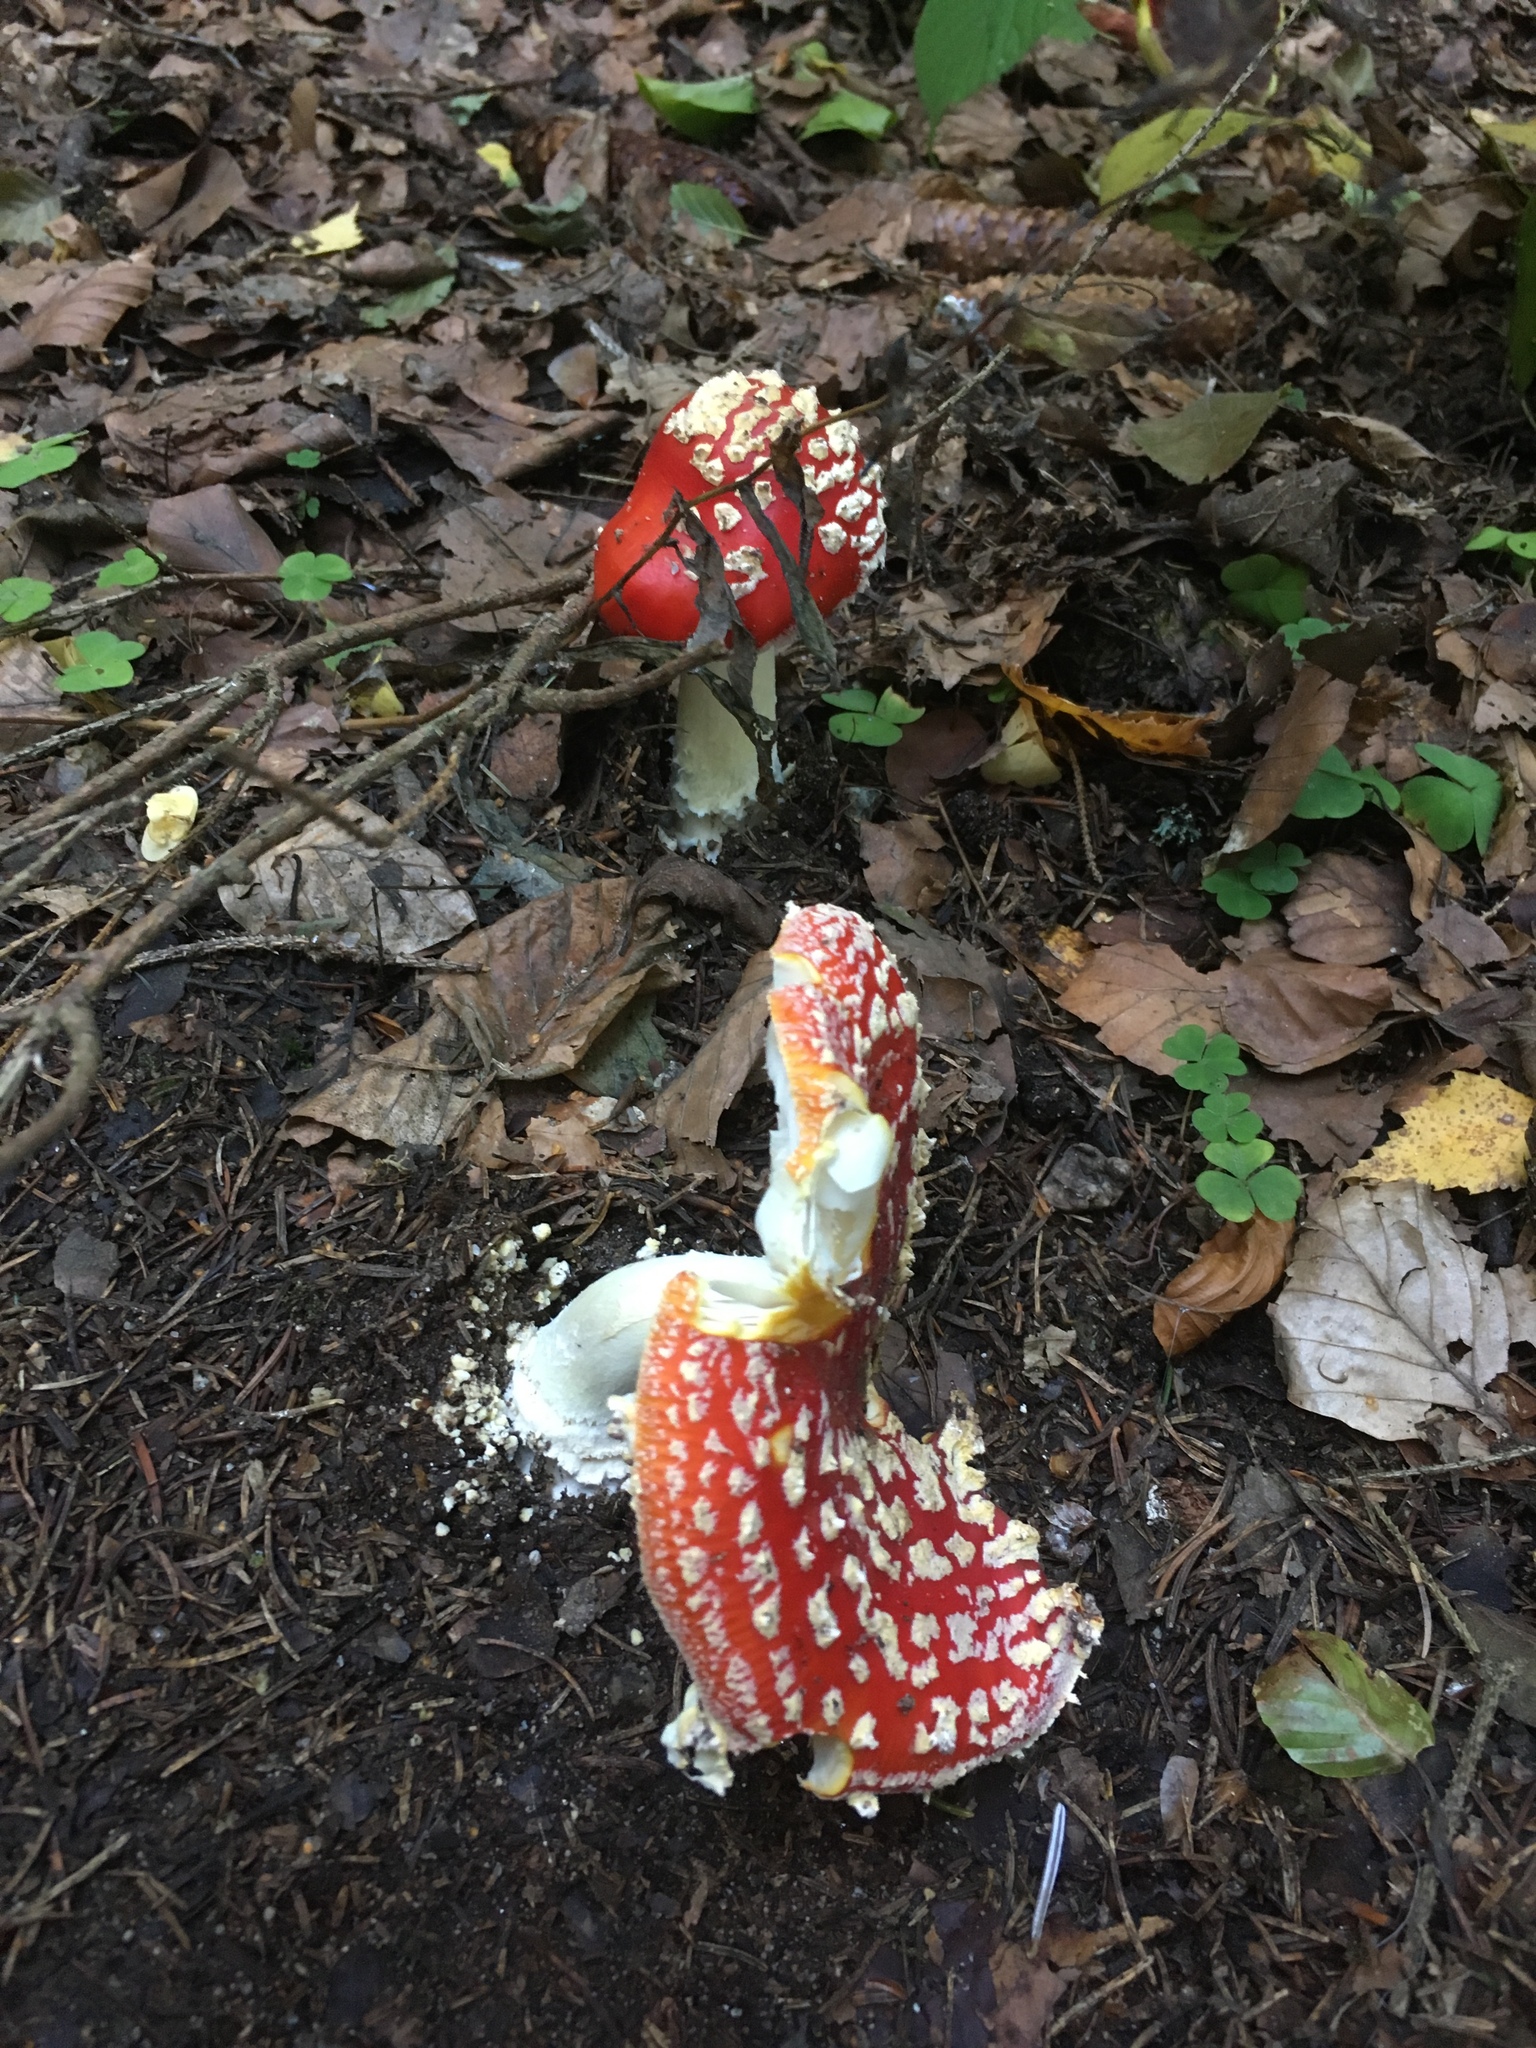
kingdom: Fungi
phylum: Basidiomycota
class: Agaricomycetes
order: Agaricales
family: Amanitaceae
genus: Amanita
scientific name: Amanita muscaria
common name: Fly agaric
